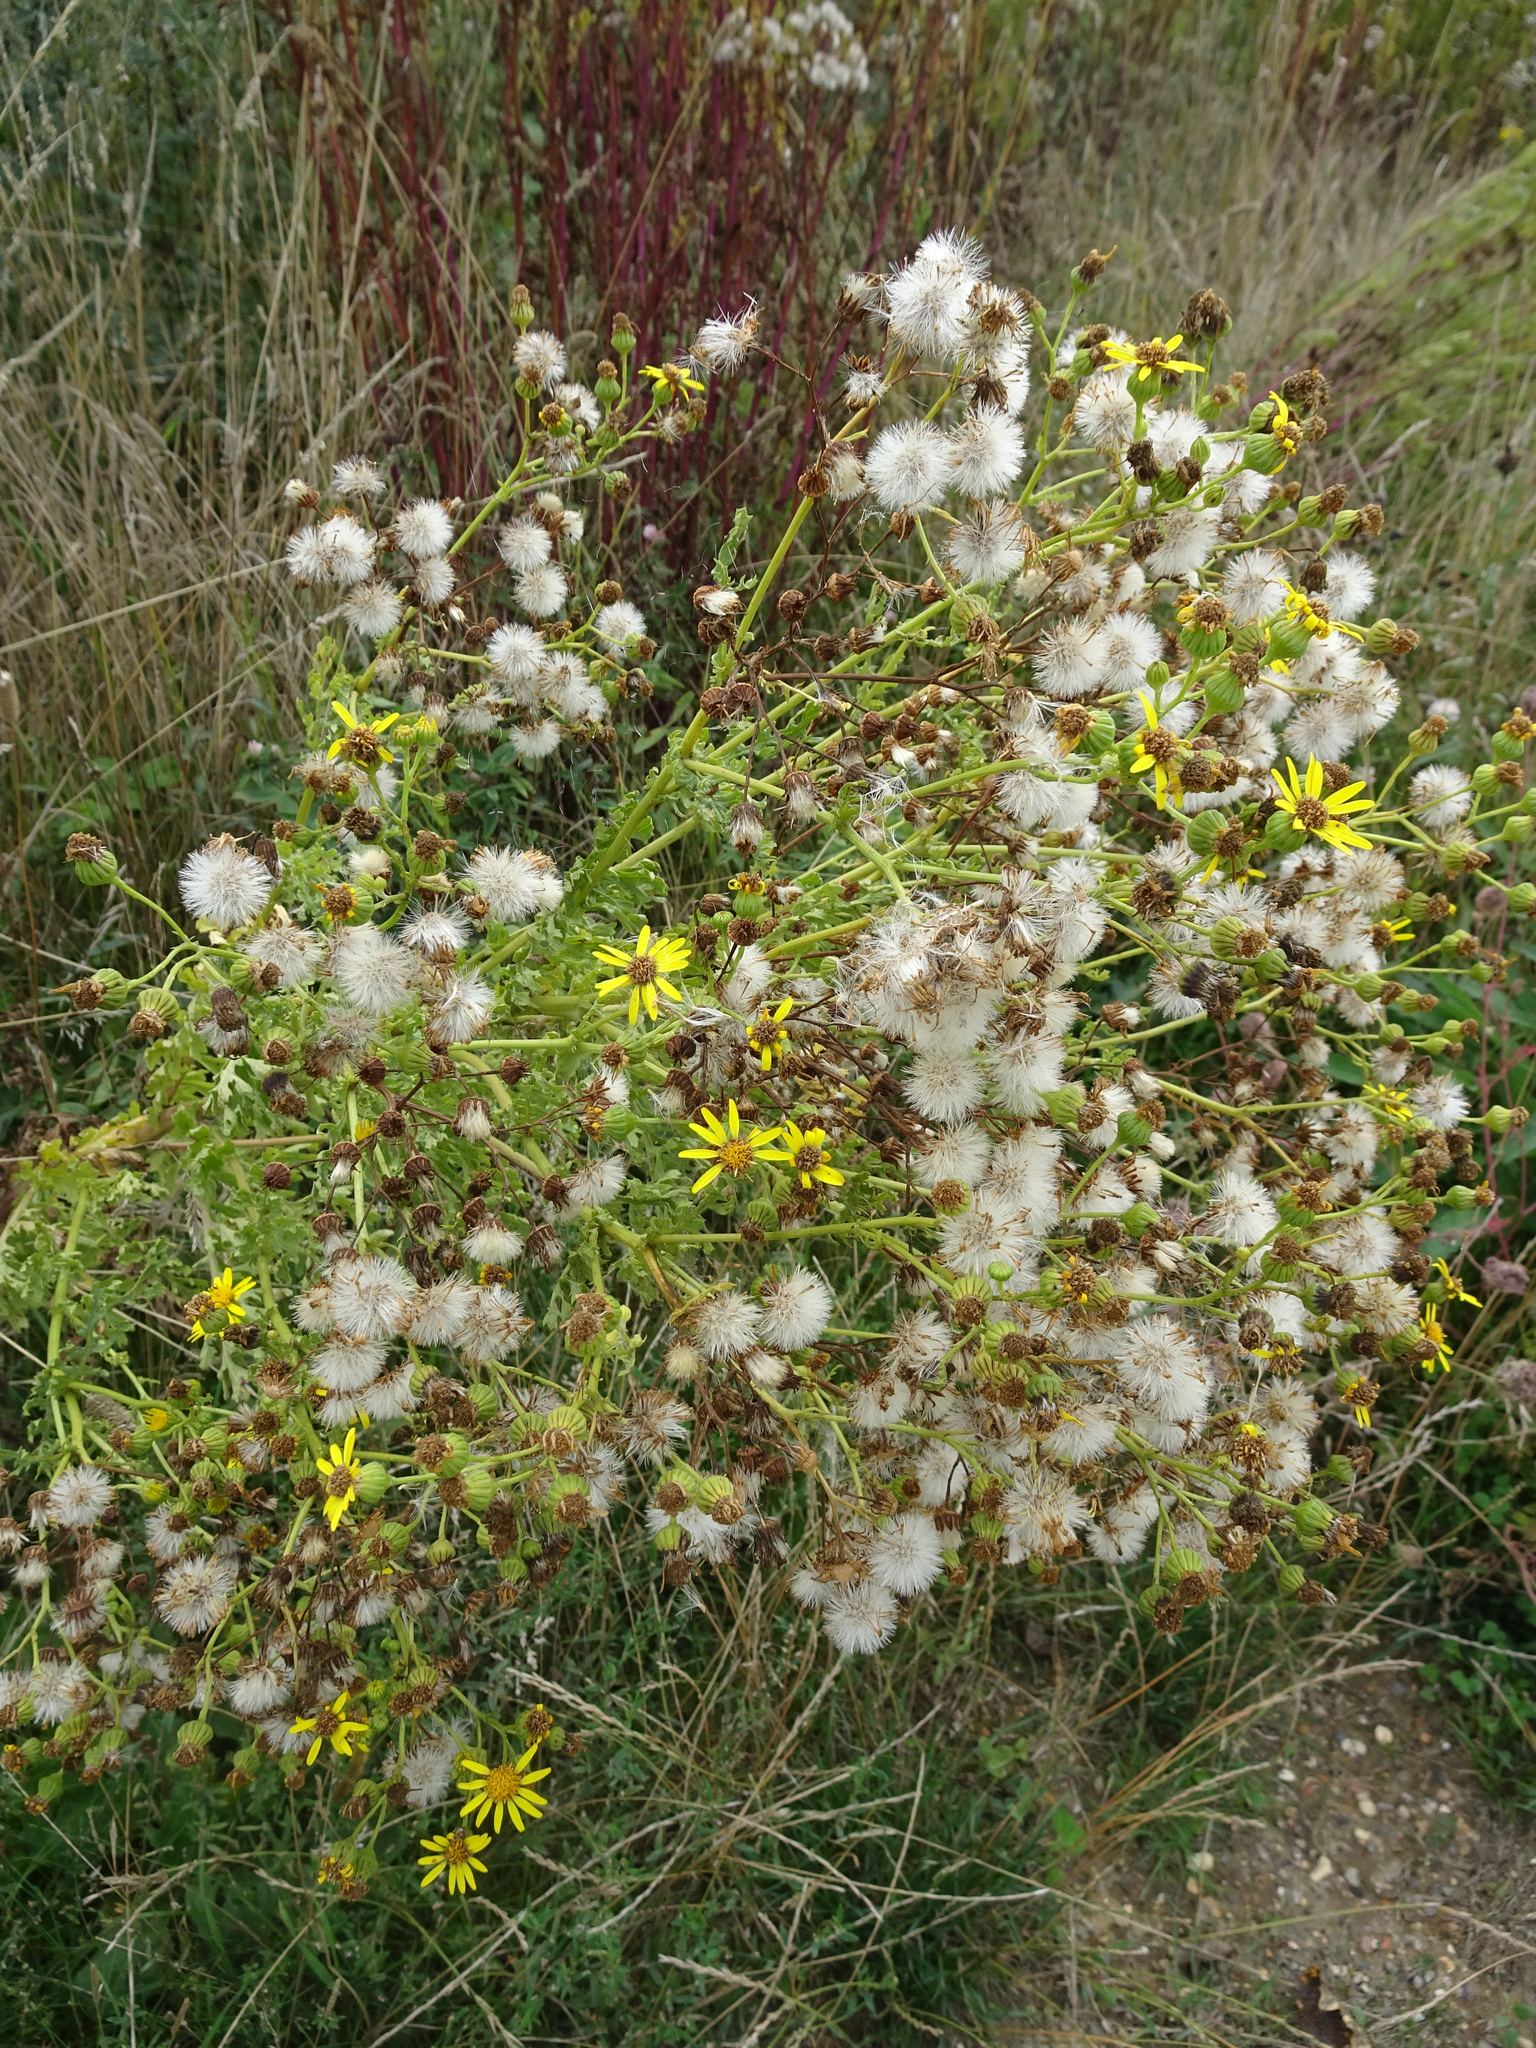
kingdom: Plantae
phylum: Tracheophyta
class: Magnoliopsida
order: Asterales
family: Asteraceae
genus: Jacobaea
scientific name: Jacobaea vulgaris
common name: Stinking willie
